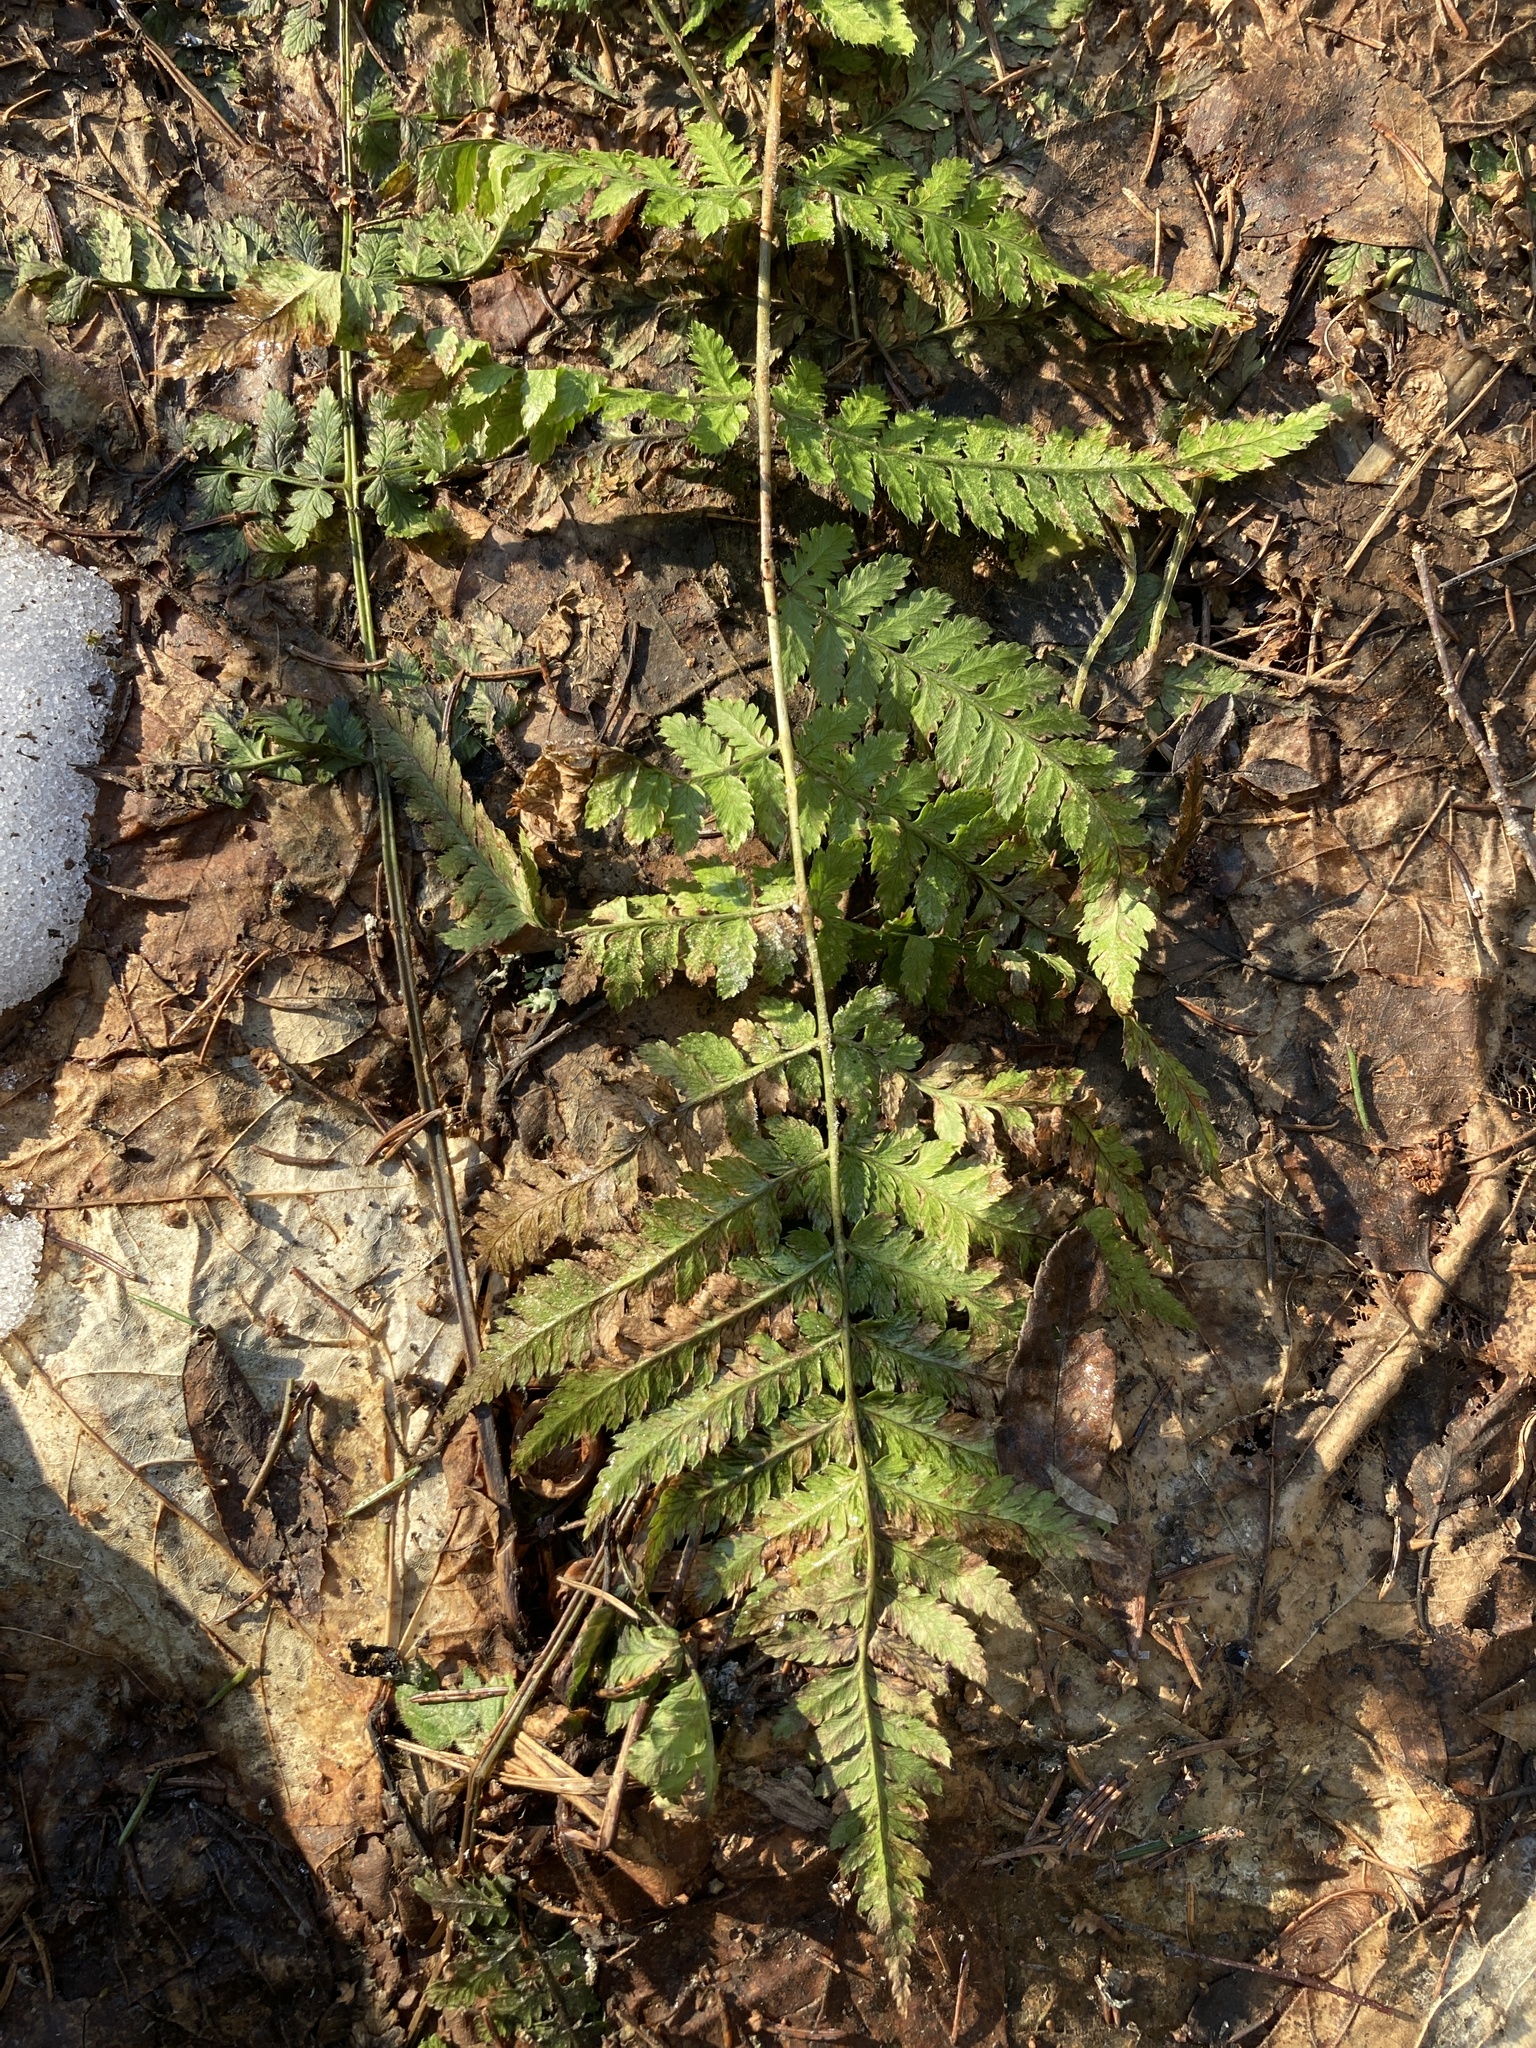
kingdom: Plantae
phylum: Tracheophyta
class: Polypodiopsida
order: Polypodiales
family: Dryopteridaceae
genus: Dryopteris
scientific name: Dryopteris carthusiana
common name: Narrow buckler-fern
